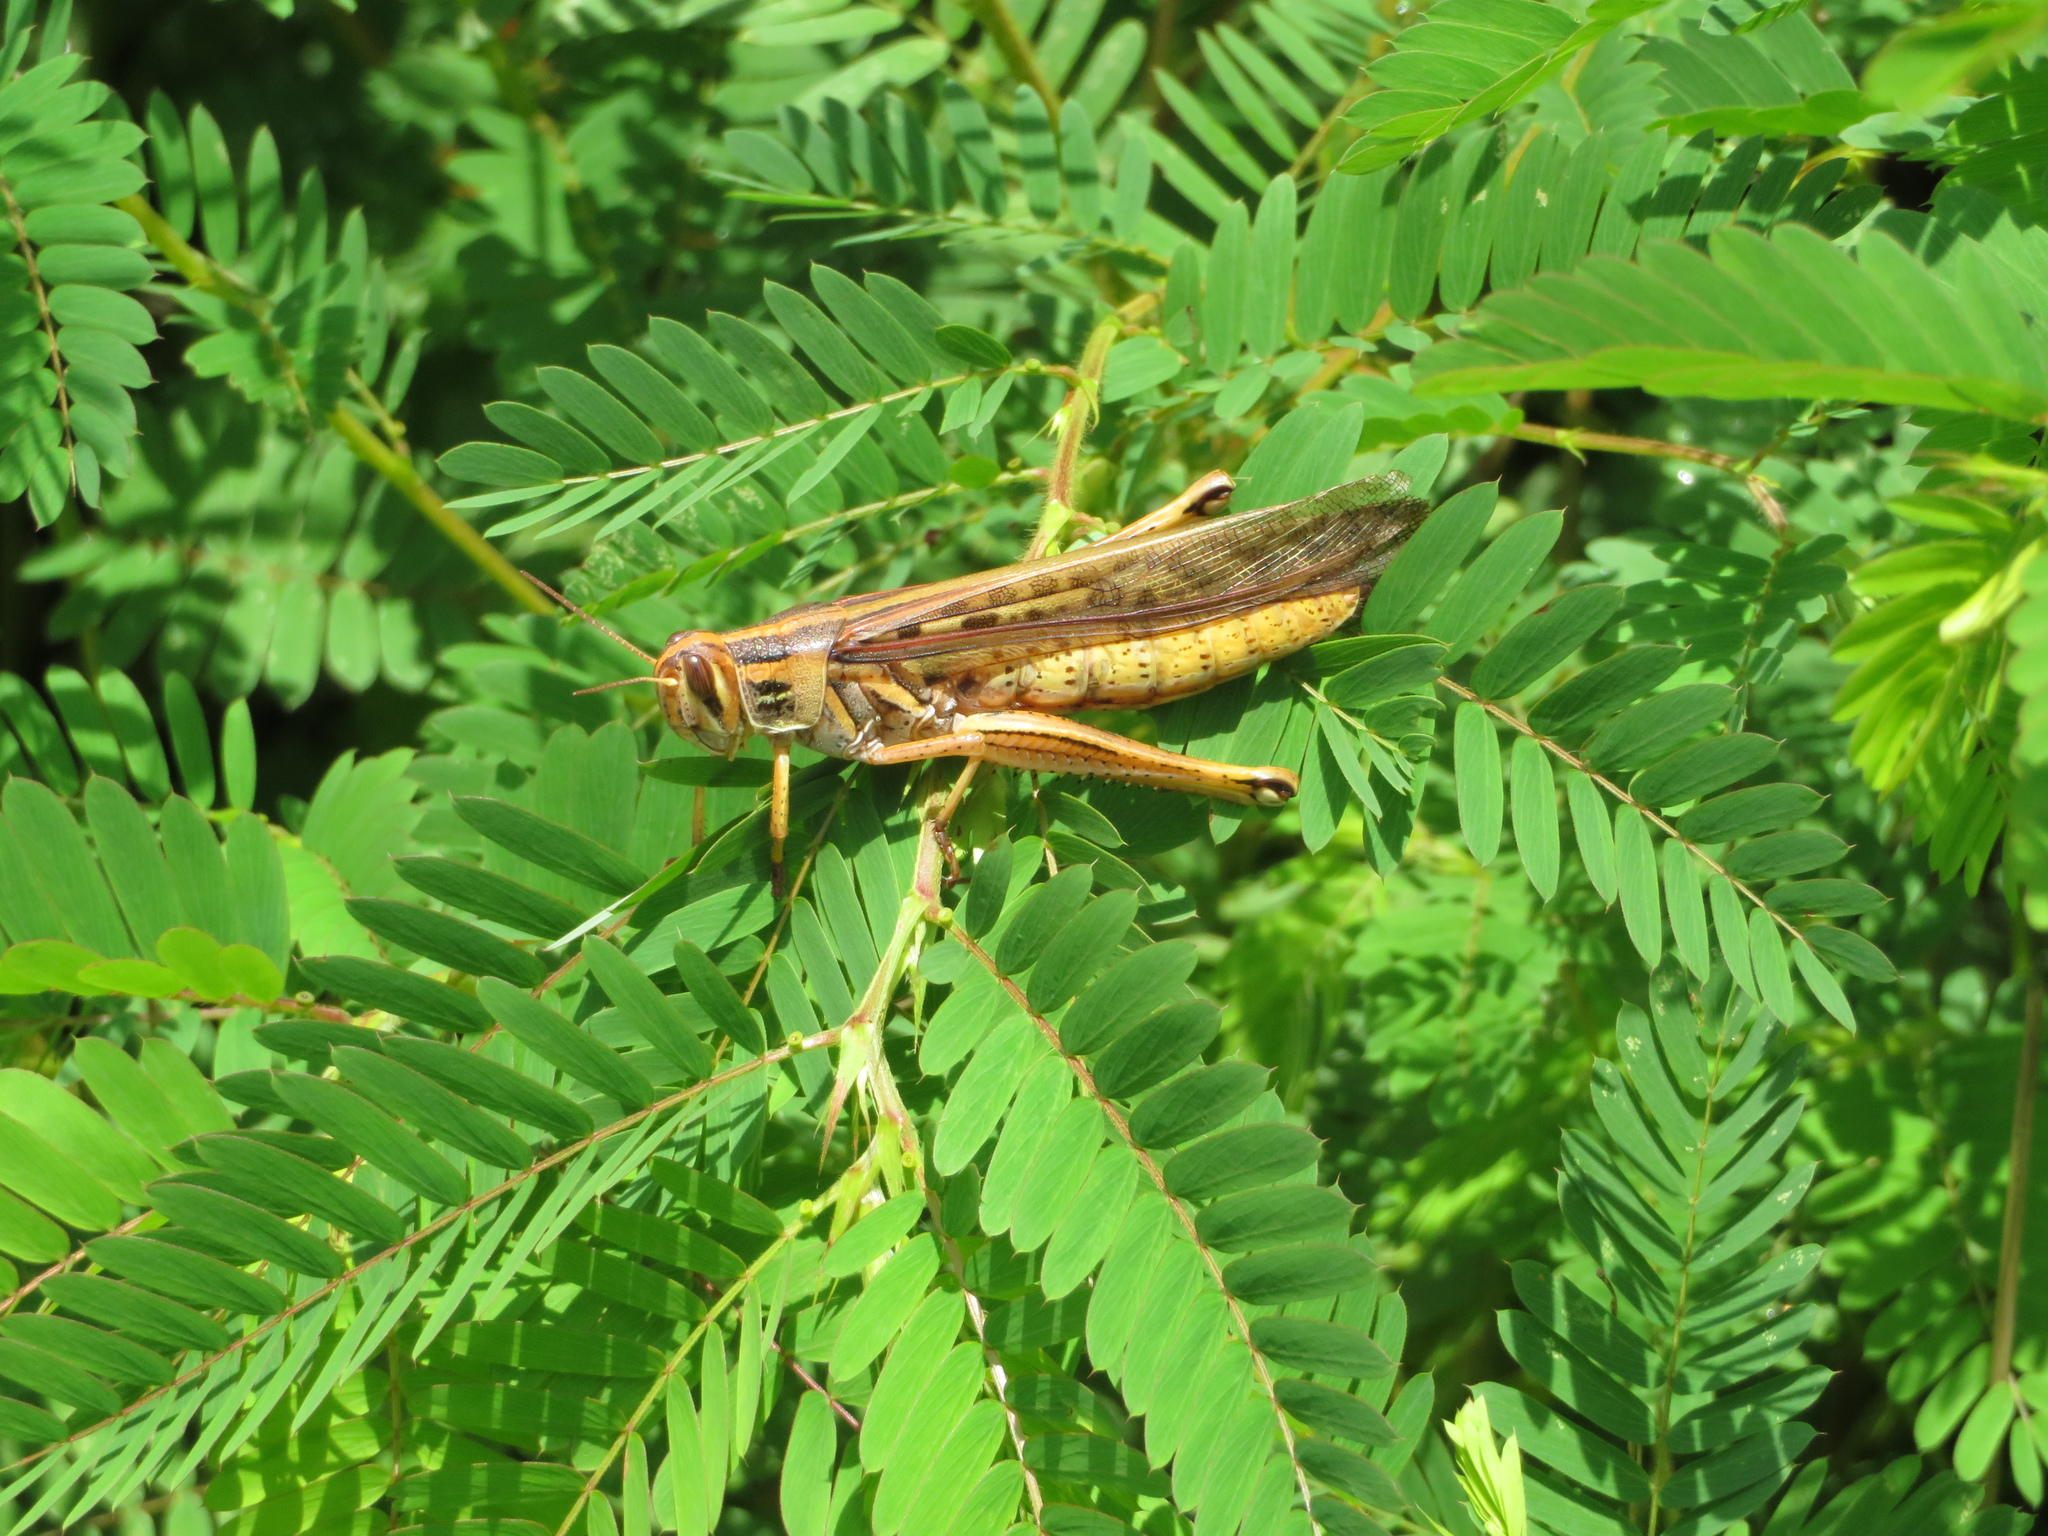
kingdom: Animalia
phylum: Arthropoda
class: Insecta
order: Orthoptera
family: Acrididae
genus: Schistocerca
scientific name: Schistocerca americana
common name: American bird locust
